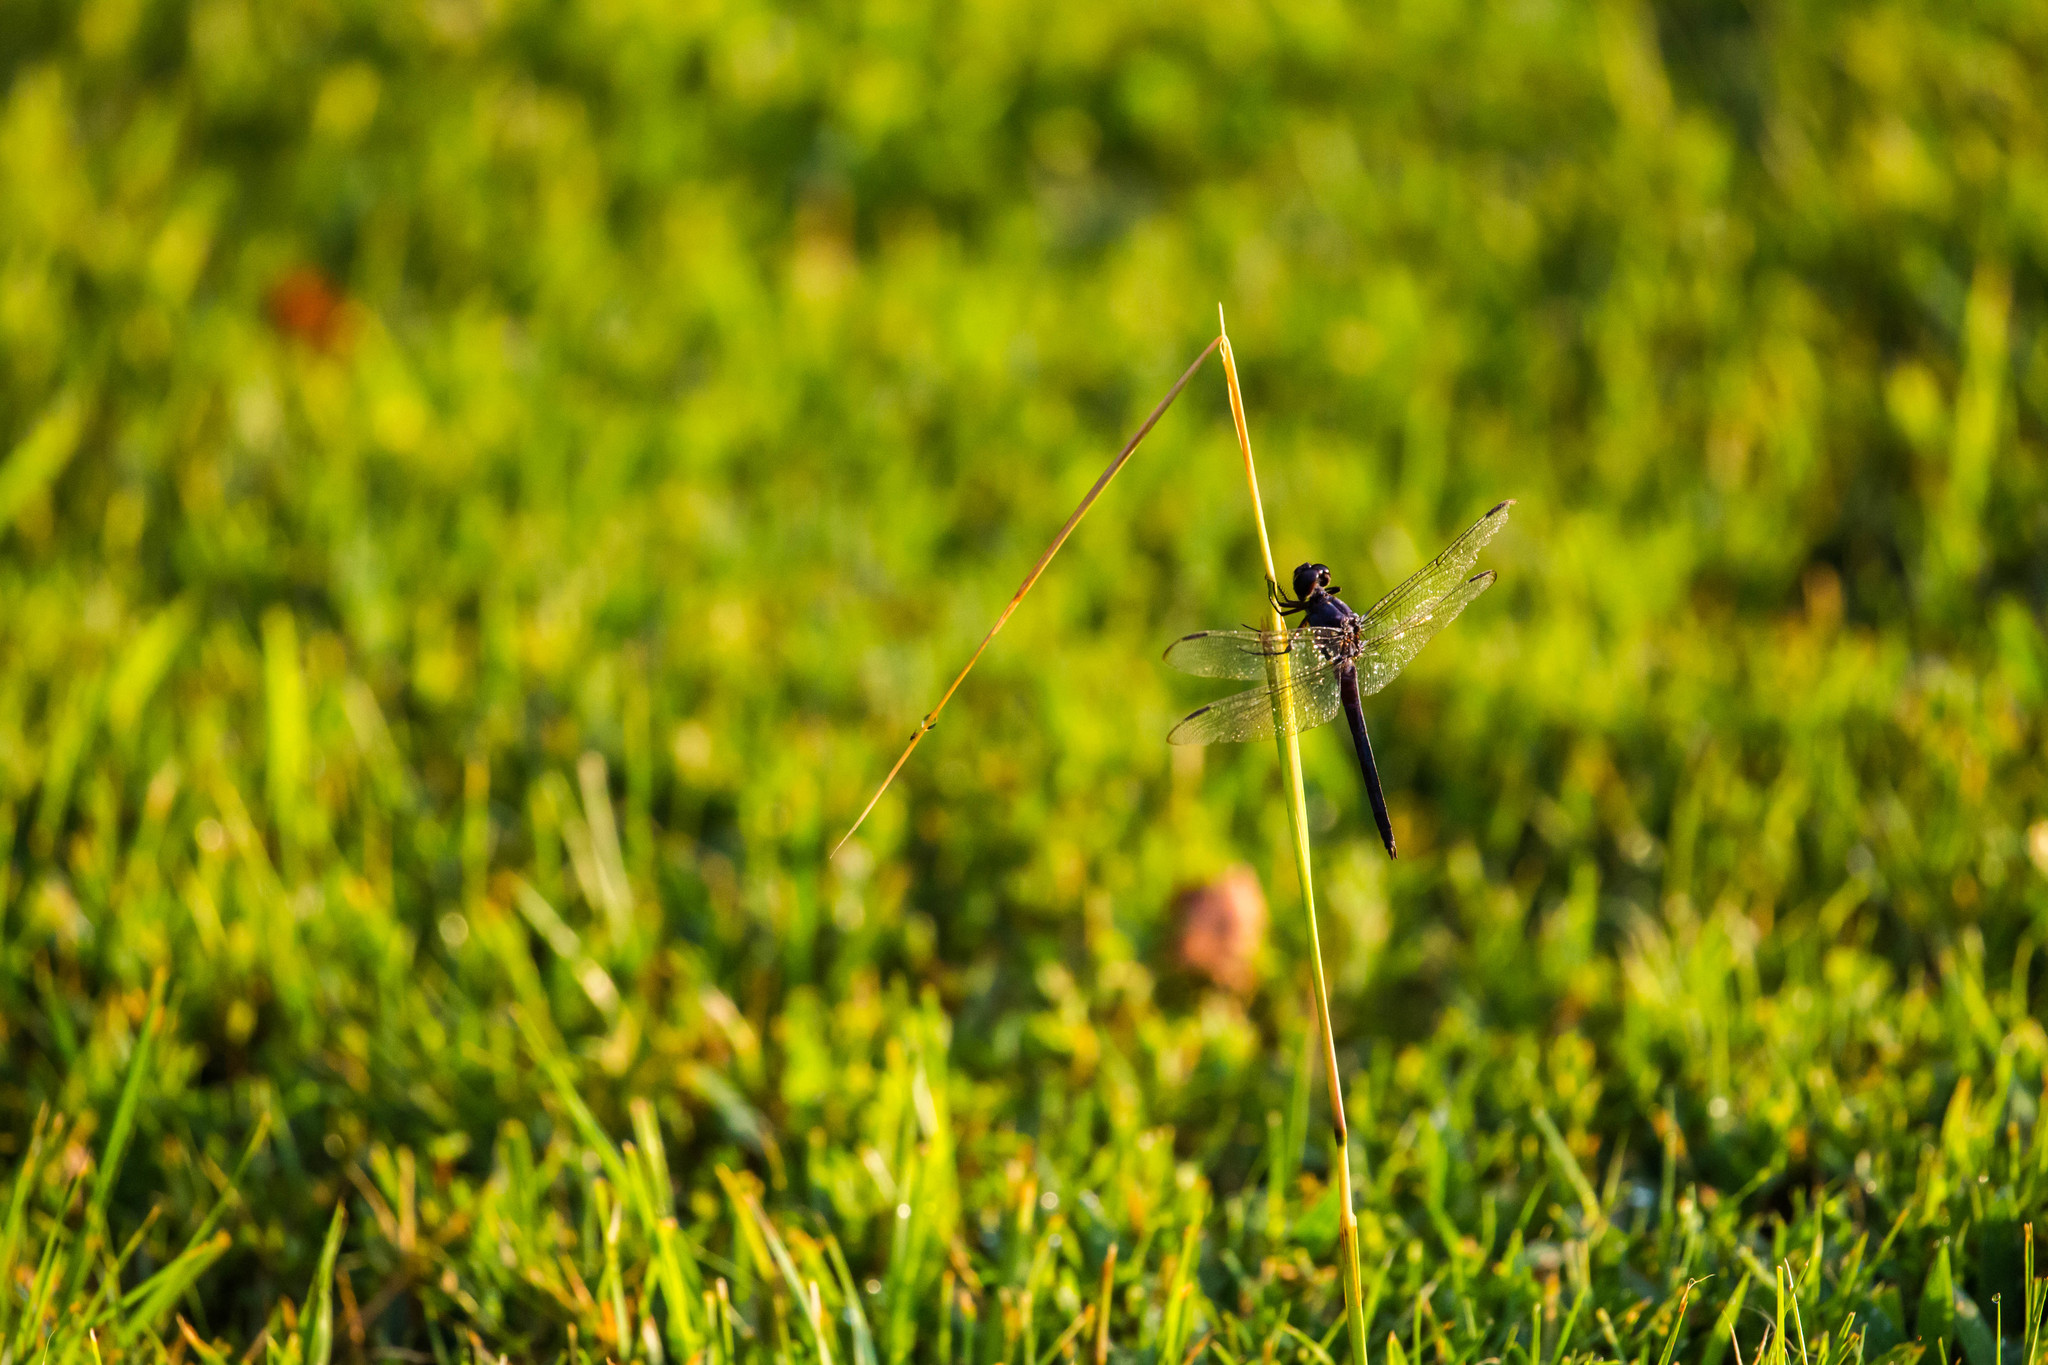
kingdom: Animalia
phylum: Arthropoda
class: Insecta
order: Odonata
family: Libellulidae
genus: Libellula
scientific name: Libellula incesta
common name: Slaty skimmer
